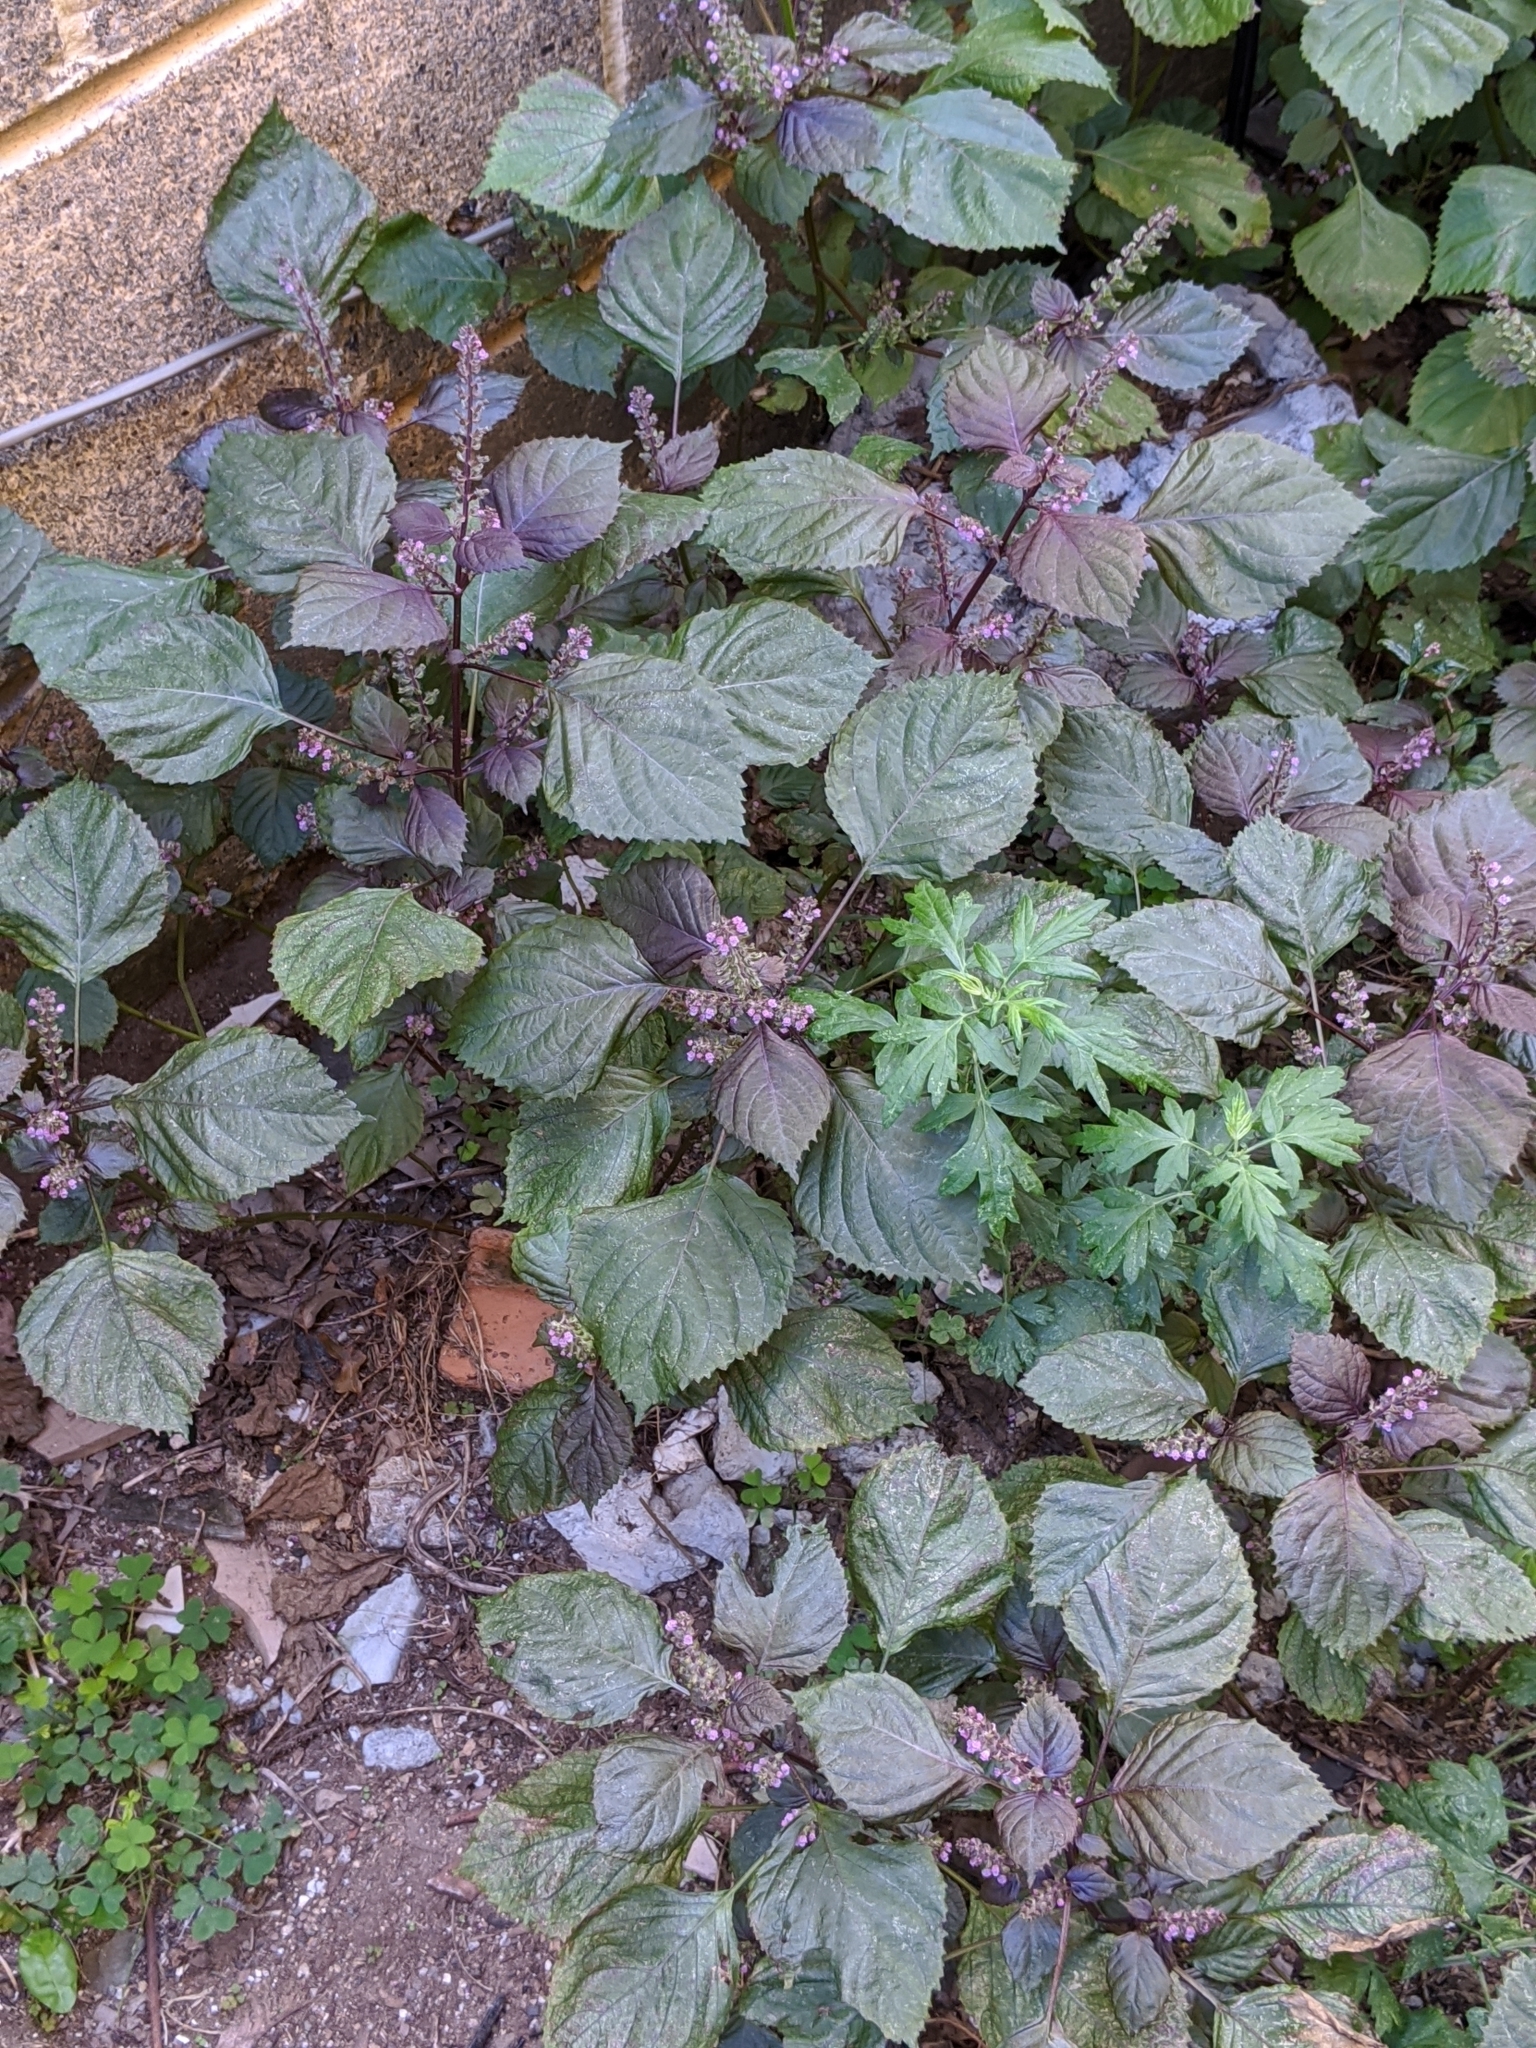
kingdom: Plantae
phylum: Tracheophyta
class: Magnoliopsida
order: Lamiales
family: Lamiaceae
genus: Perilla
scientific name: Perilla frutescens
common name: Perilla
